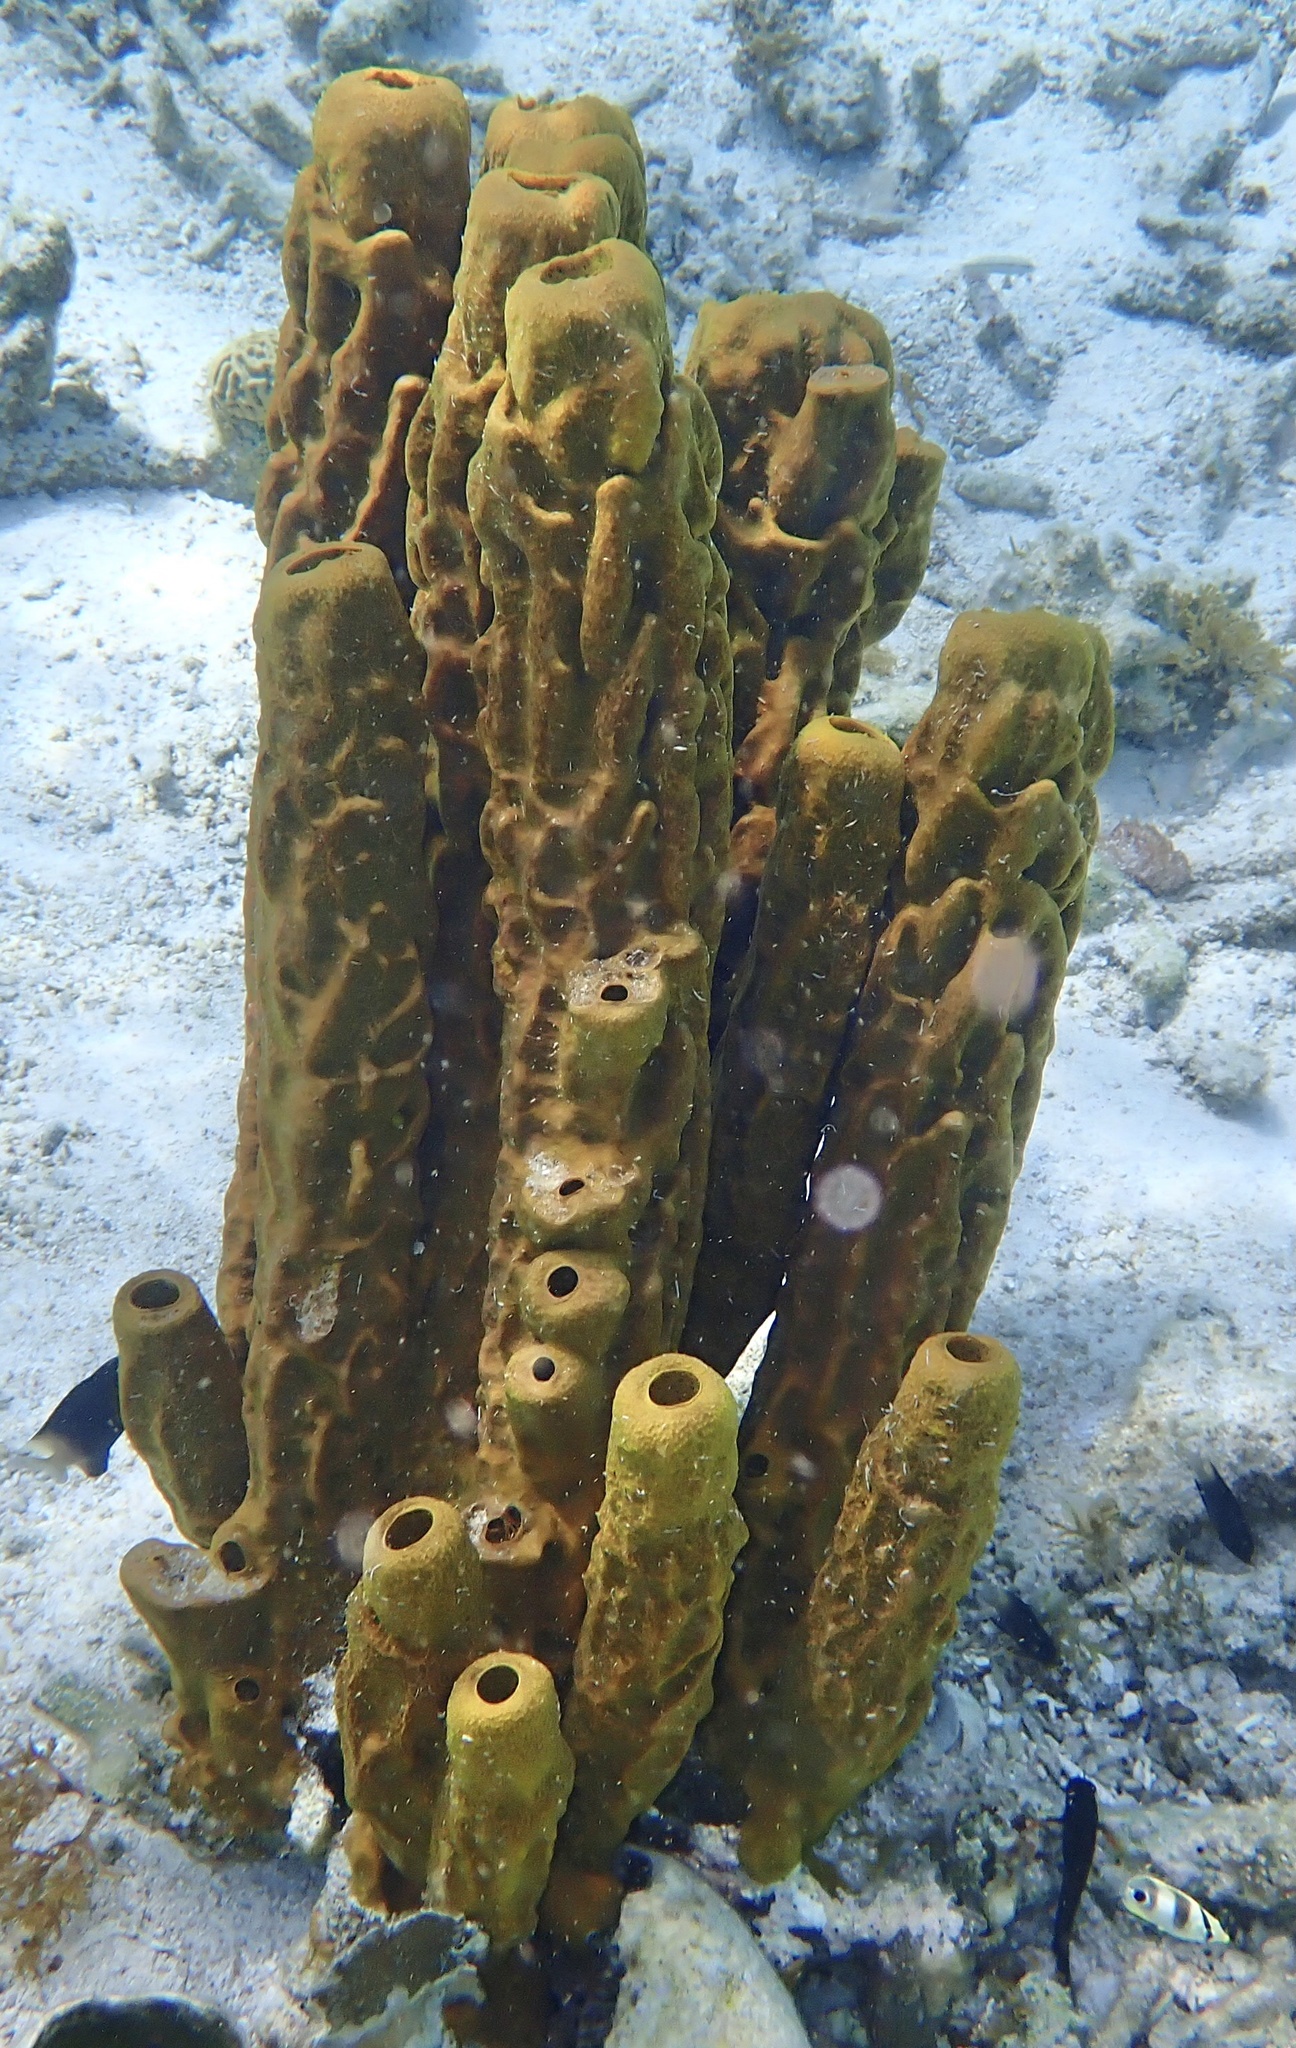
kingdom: Animalia
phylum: Porifera
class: Demospongiae
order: Verongiida
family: Aplysinidae
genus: Aplysina
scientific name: Aplysina fistularis
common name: Candle sponge
